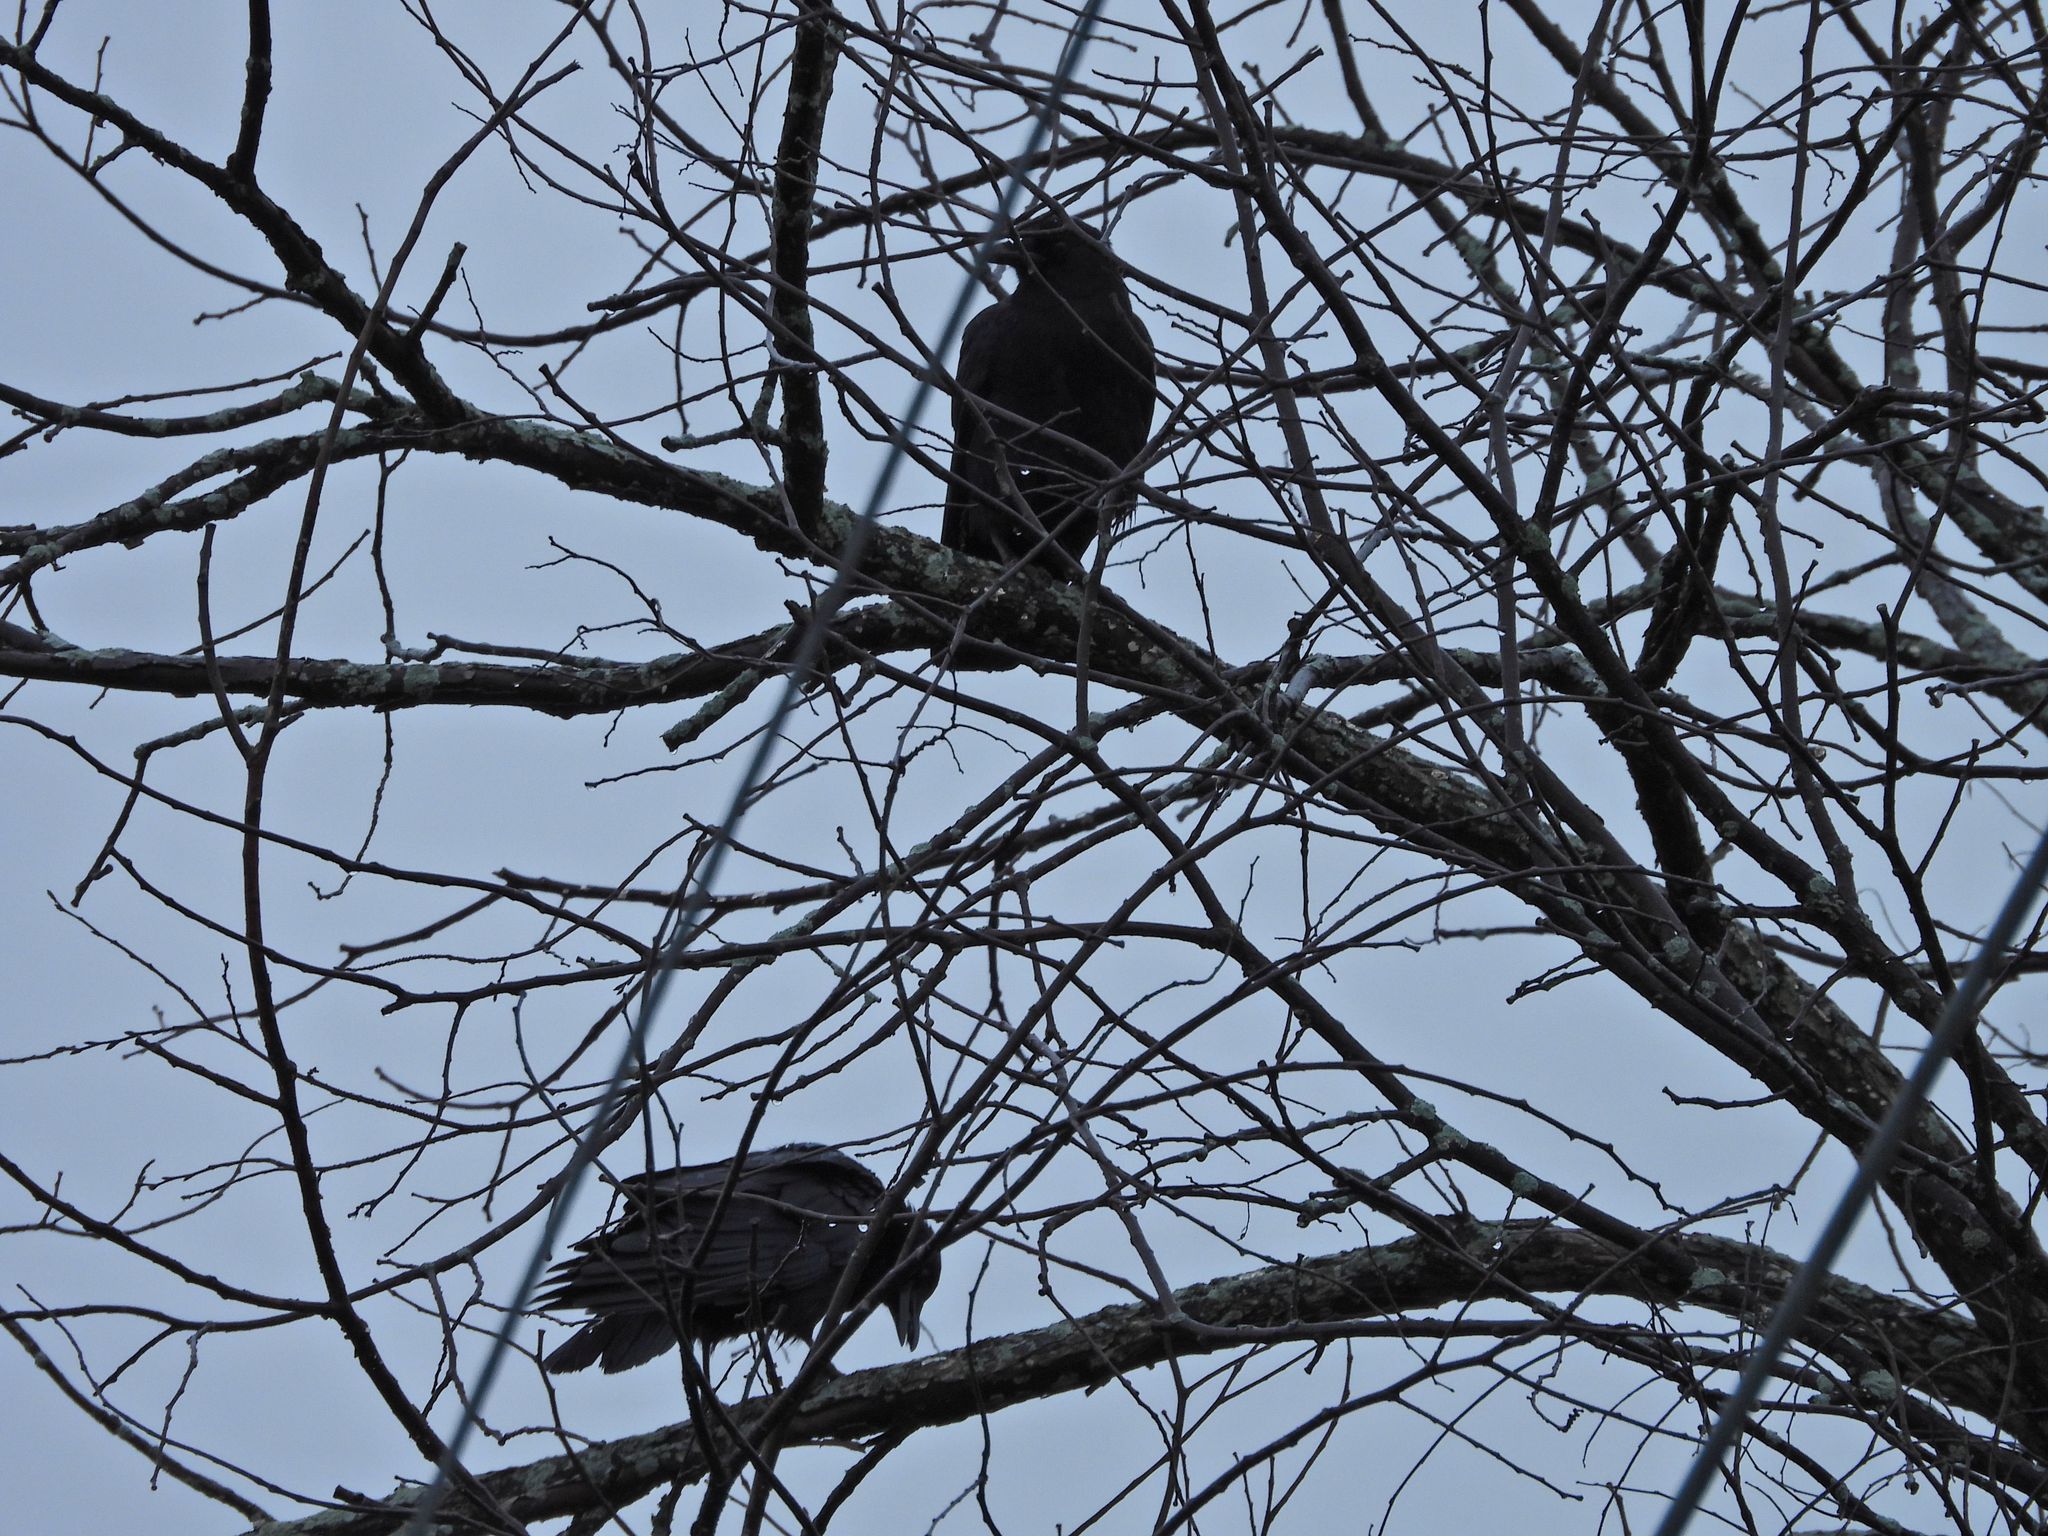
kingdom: Animalia
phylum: Chordata
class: Aves
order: Passeriformes
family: Corvidae
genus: Corvus
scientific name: Corvus brachyrhynchos
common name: American crow
